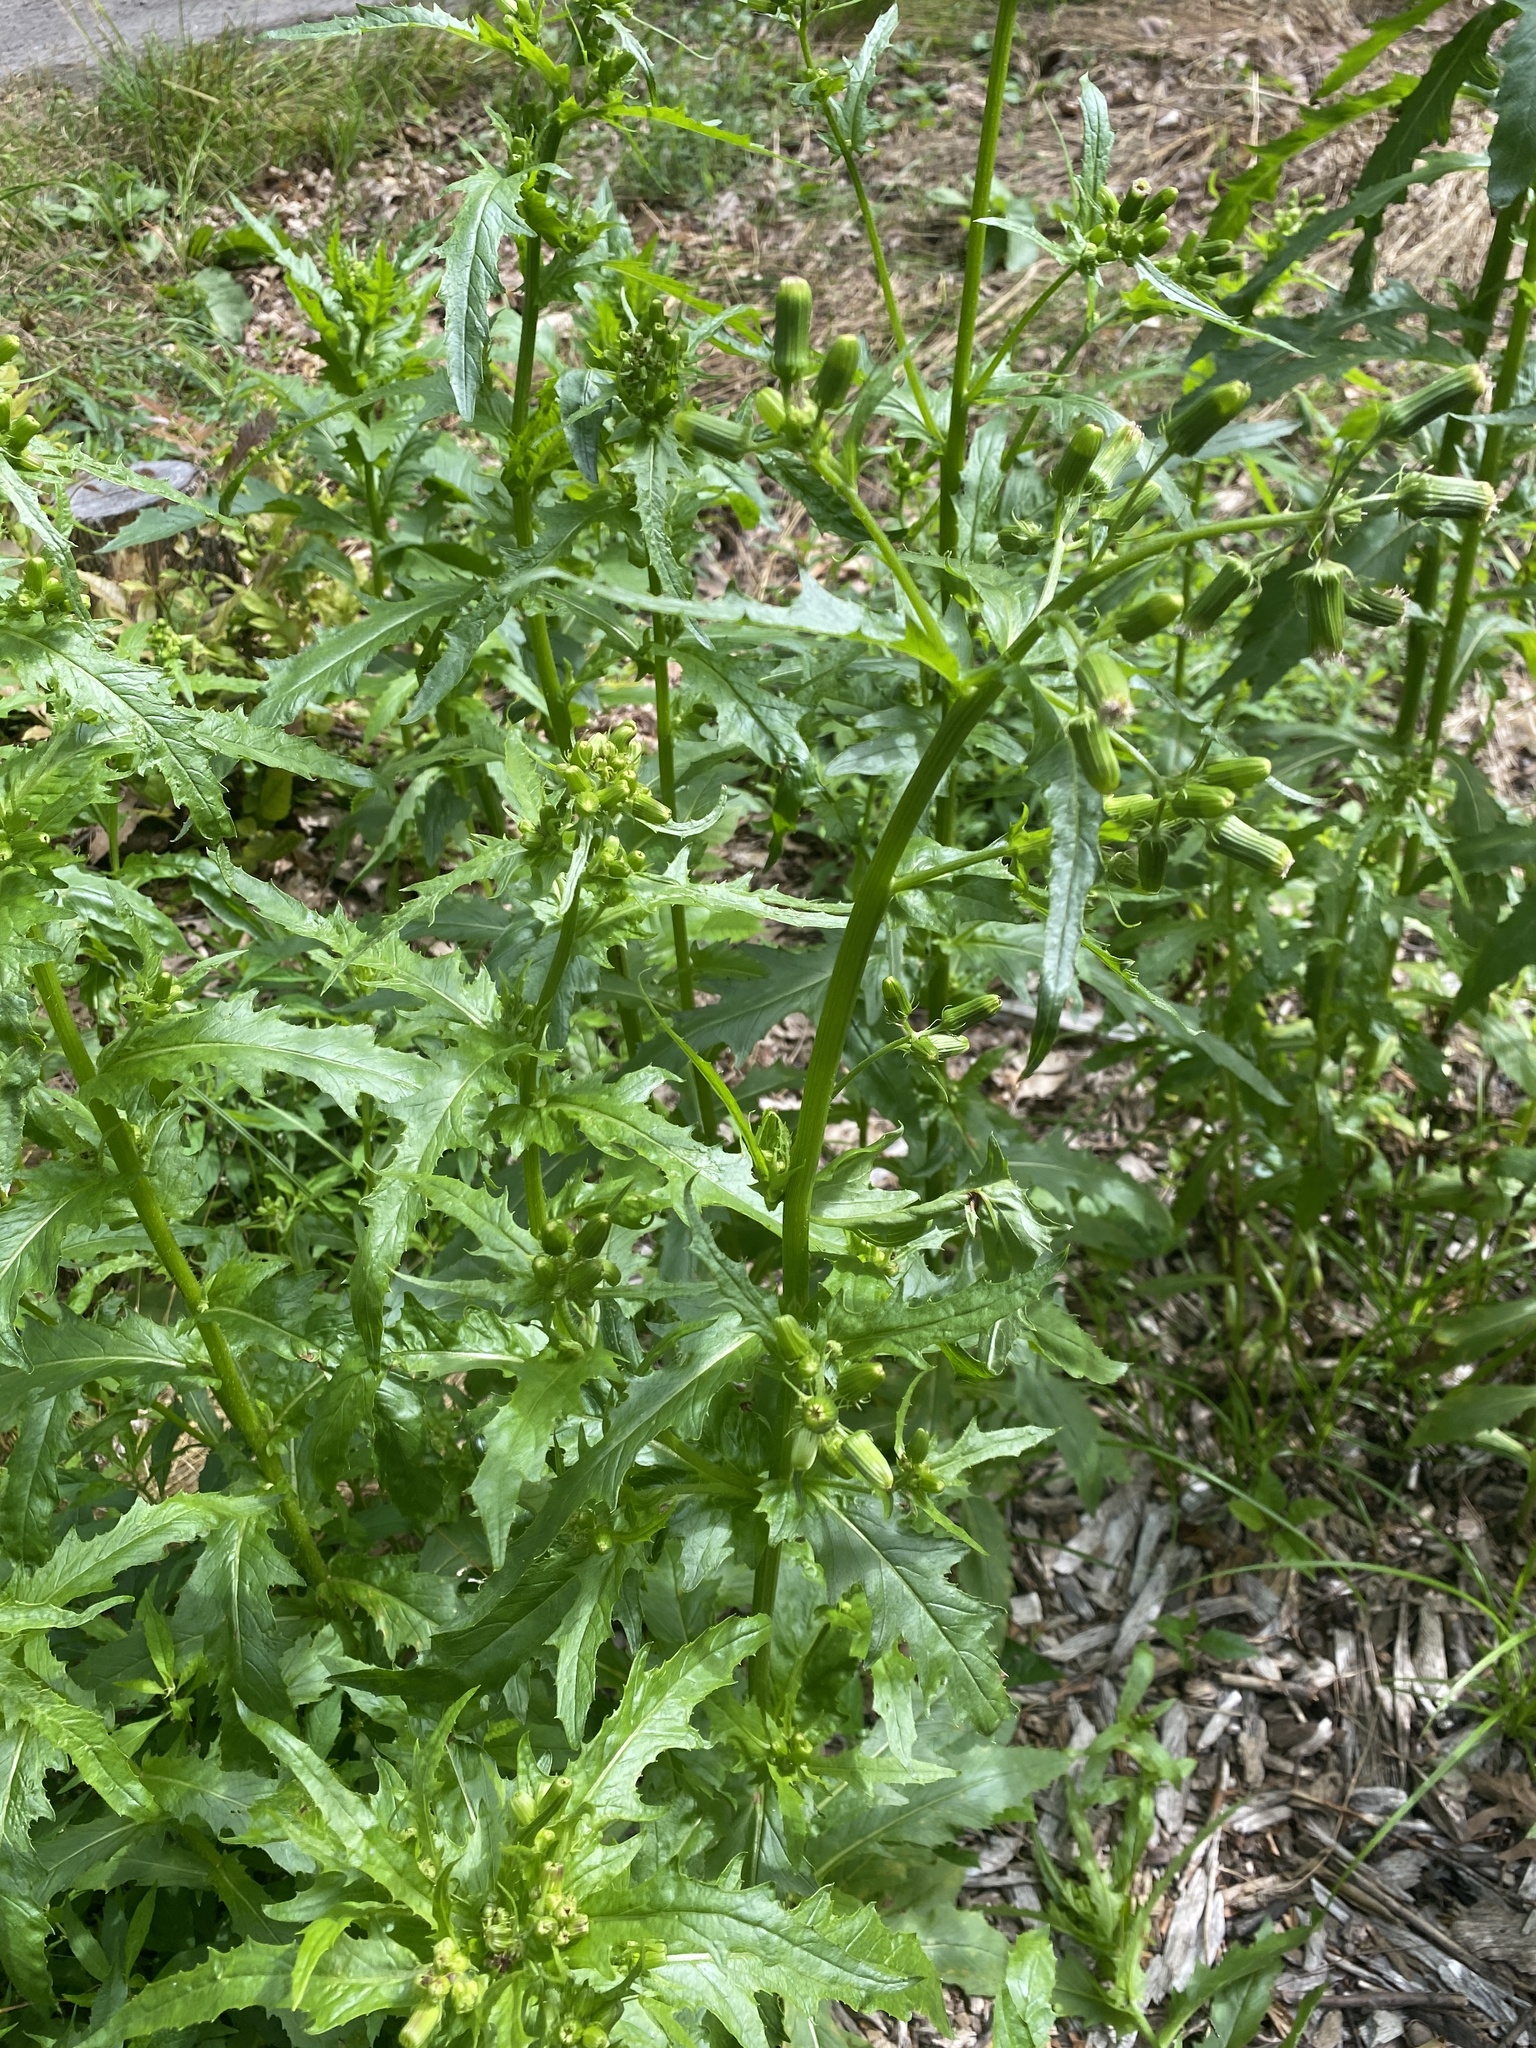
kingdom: Plantae
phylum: Tracheophyta
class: Magnoliopsida
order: Asterales
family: Asteraceae
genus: Erechtites
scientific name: Erechtites hieraciifolius
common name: American burnweed
